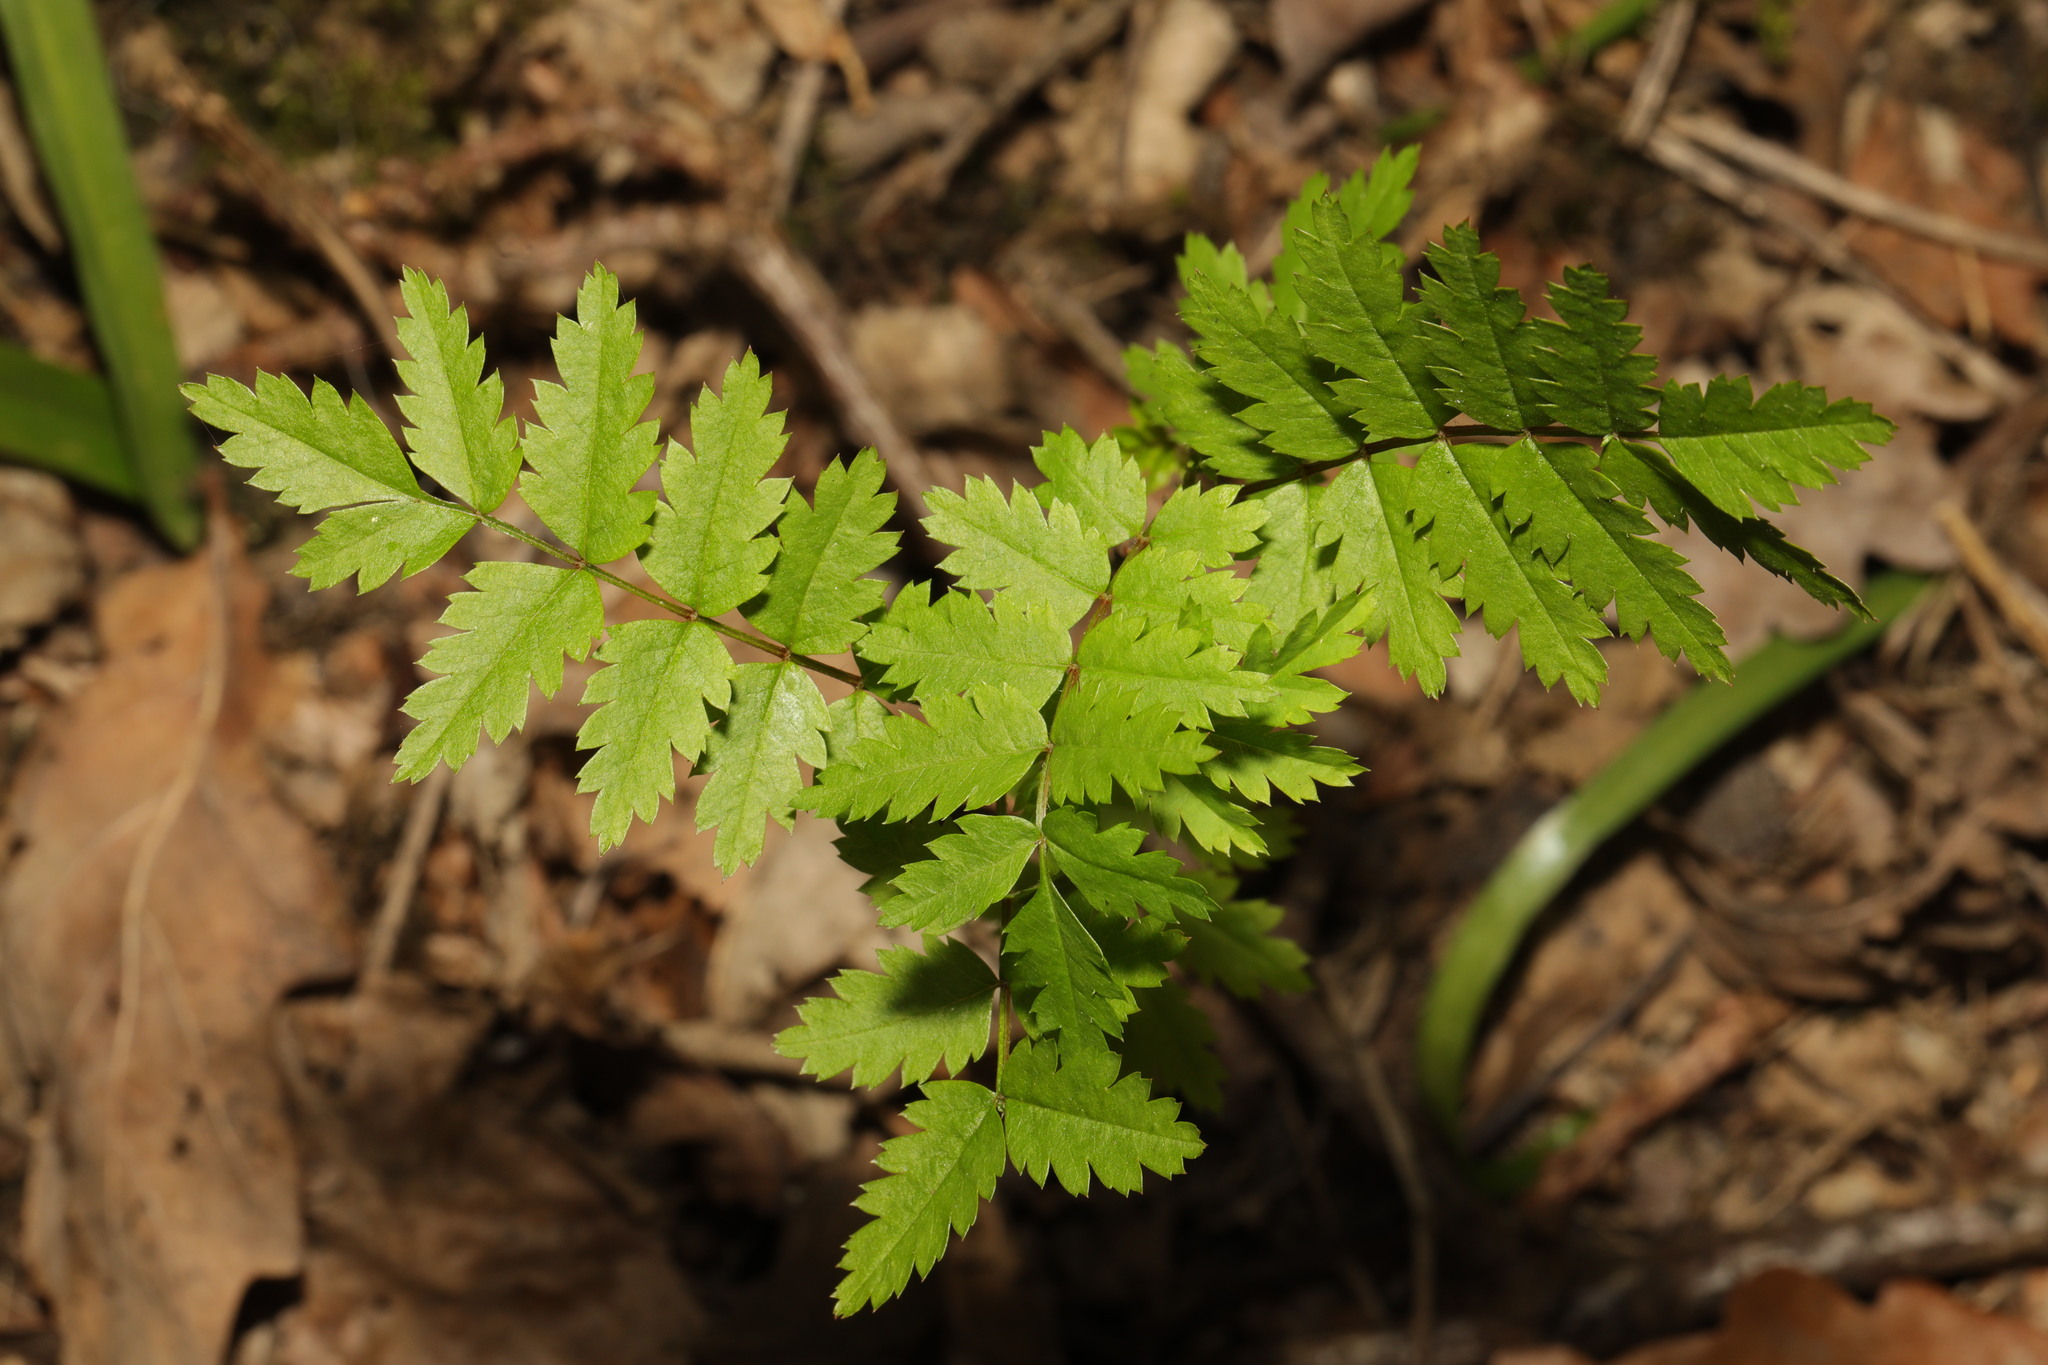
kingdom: Plantae
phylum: Tracheophyta
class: Magnoliopsida
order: Rosales
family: Rosaceae
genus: Sorbus
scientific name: Sorbus aucuparia
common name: Rowan
